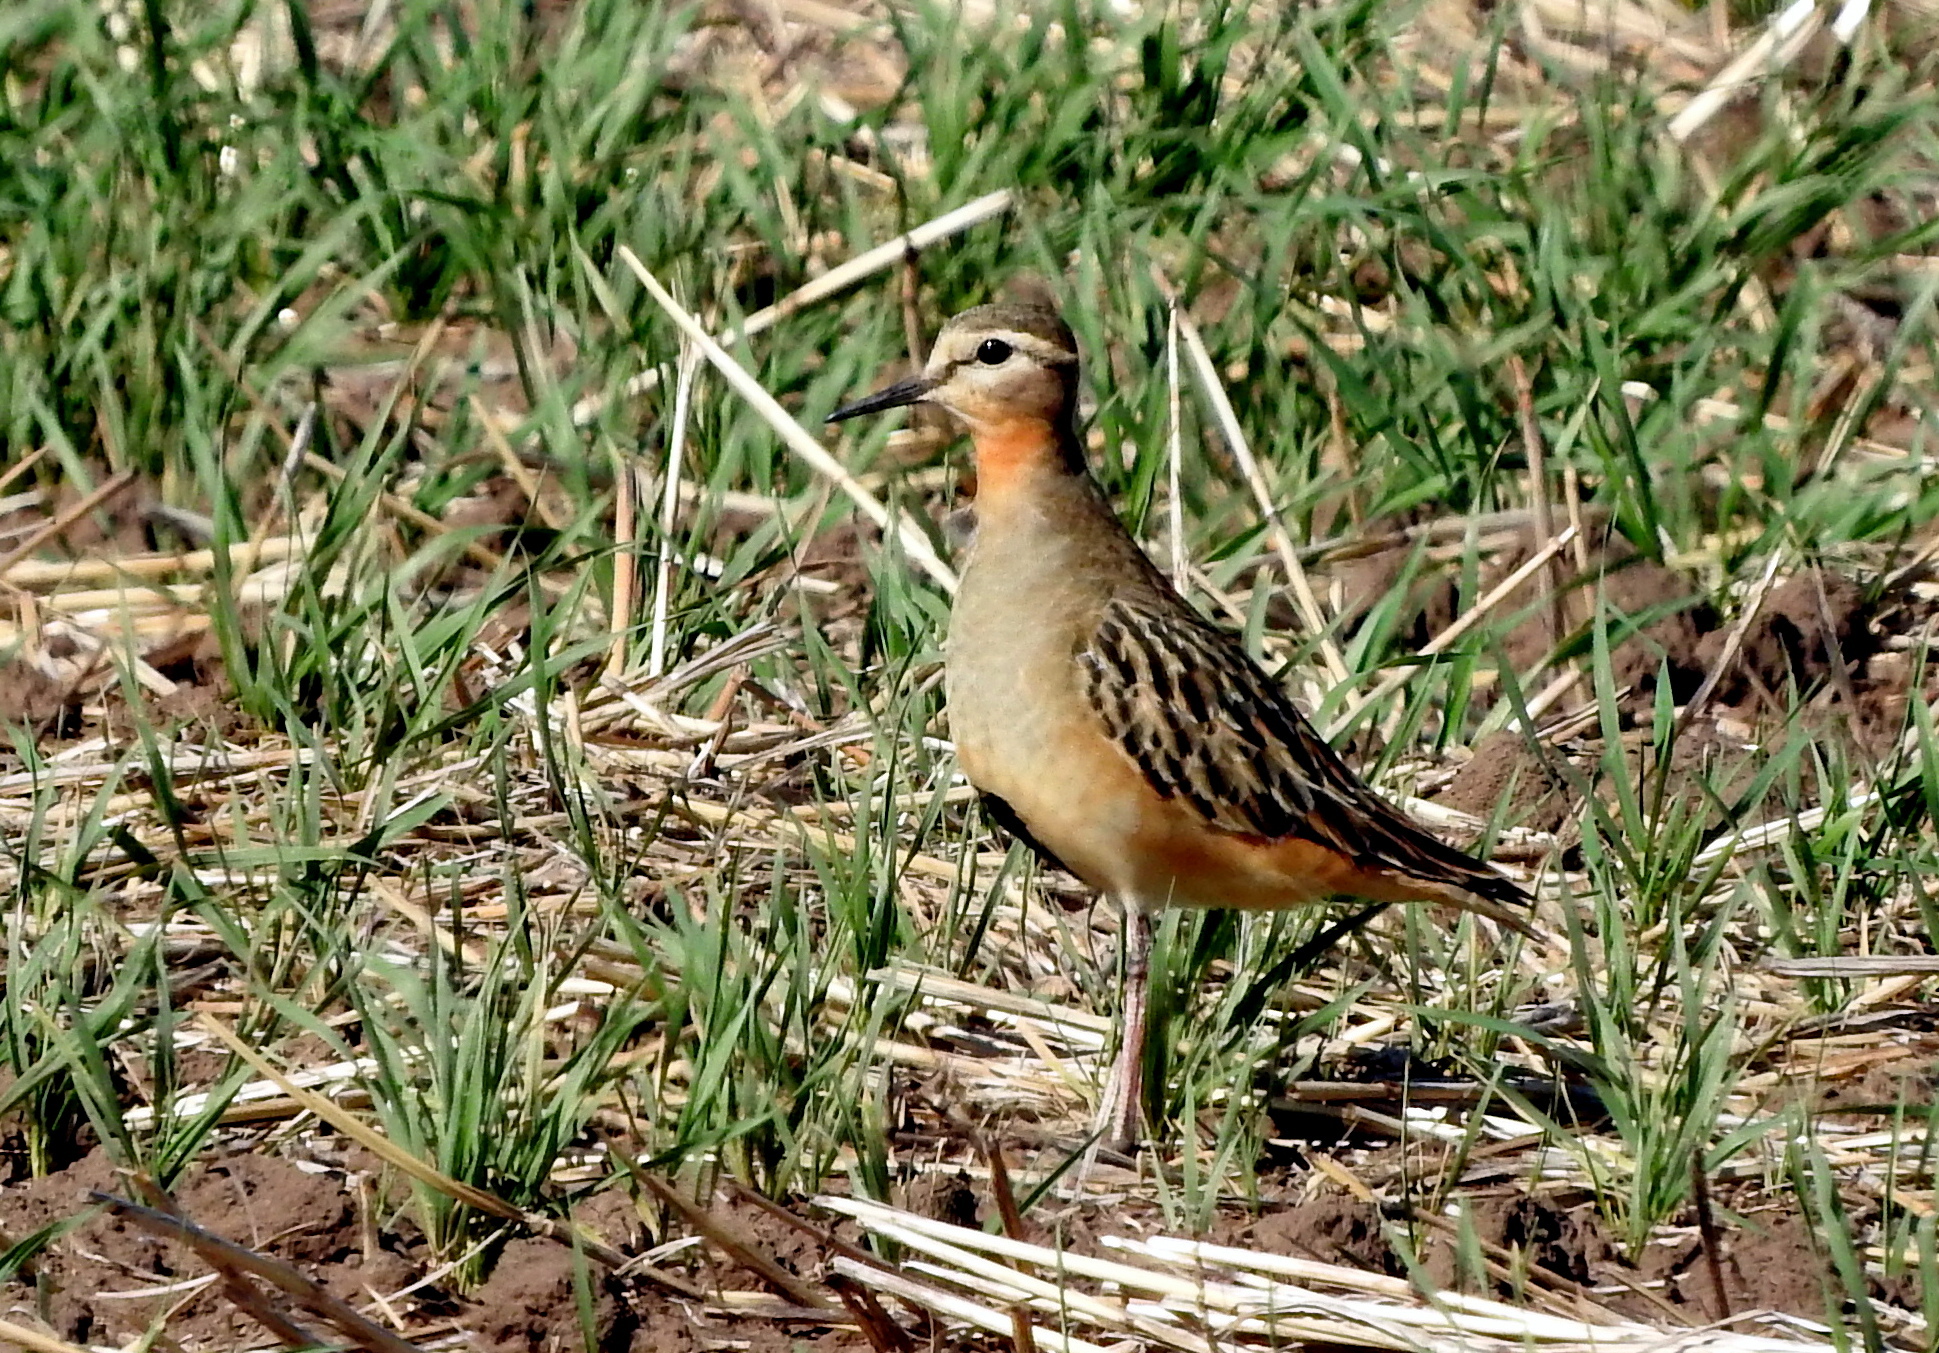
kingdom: Animalia
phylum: Chordata
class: Aves
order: Charadriiformes
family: Charadriidae
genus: Oreopholus
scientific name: Oreopholus ruficollis
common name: Tawny-throated dotterel
